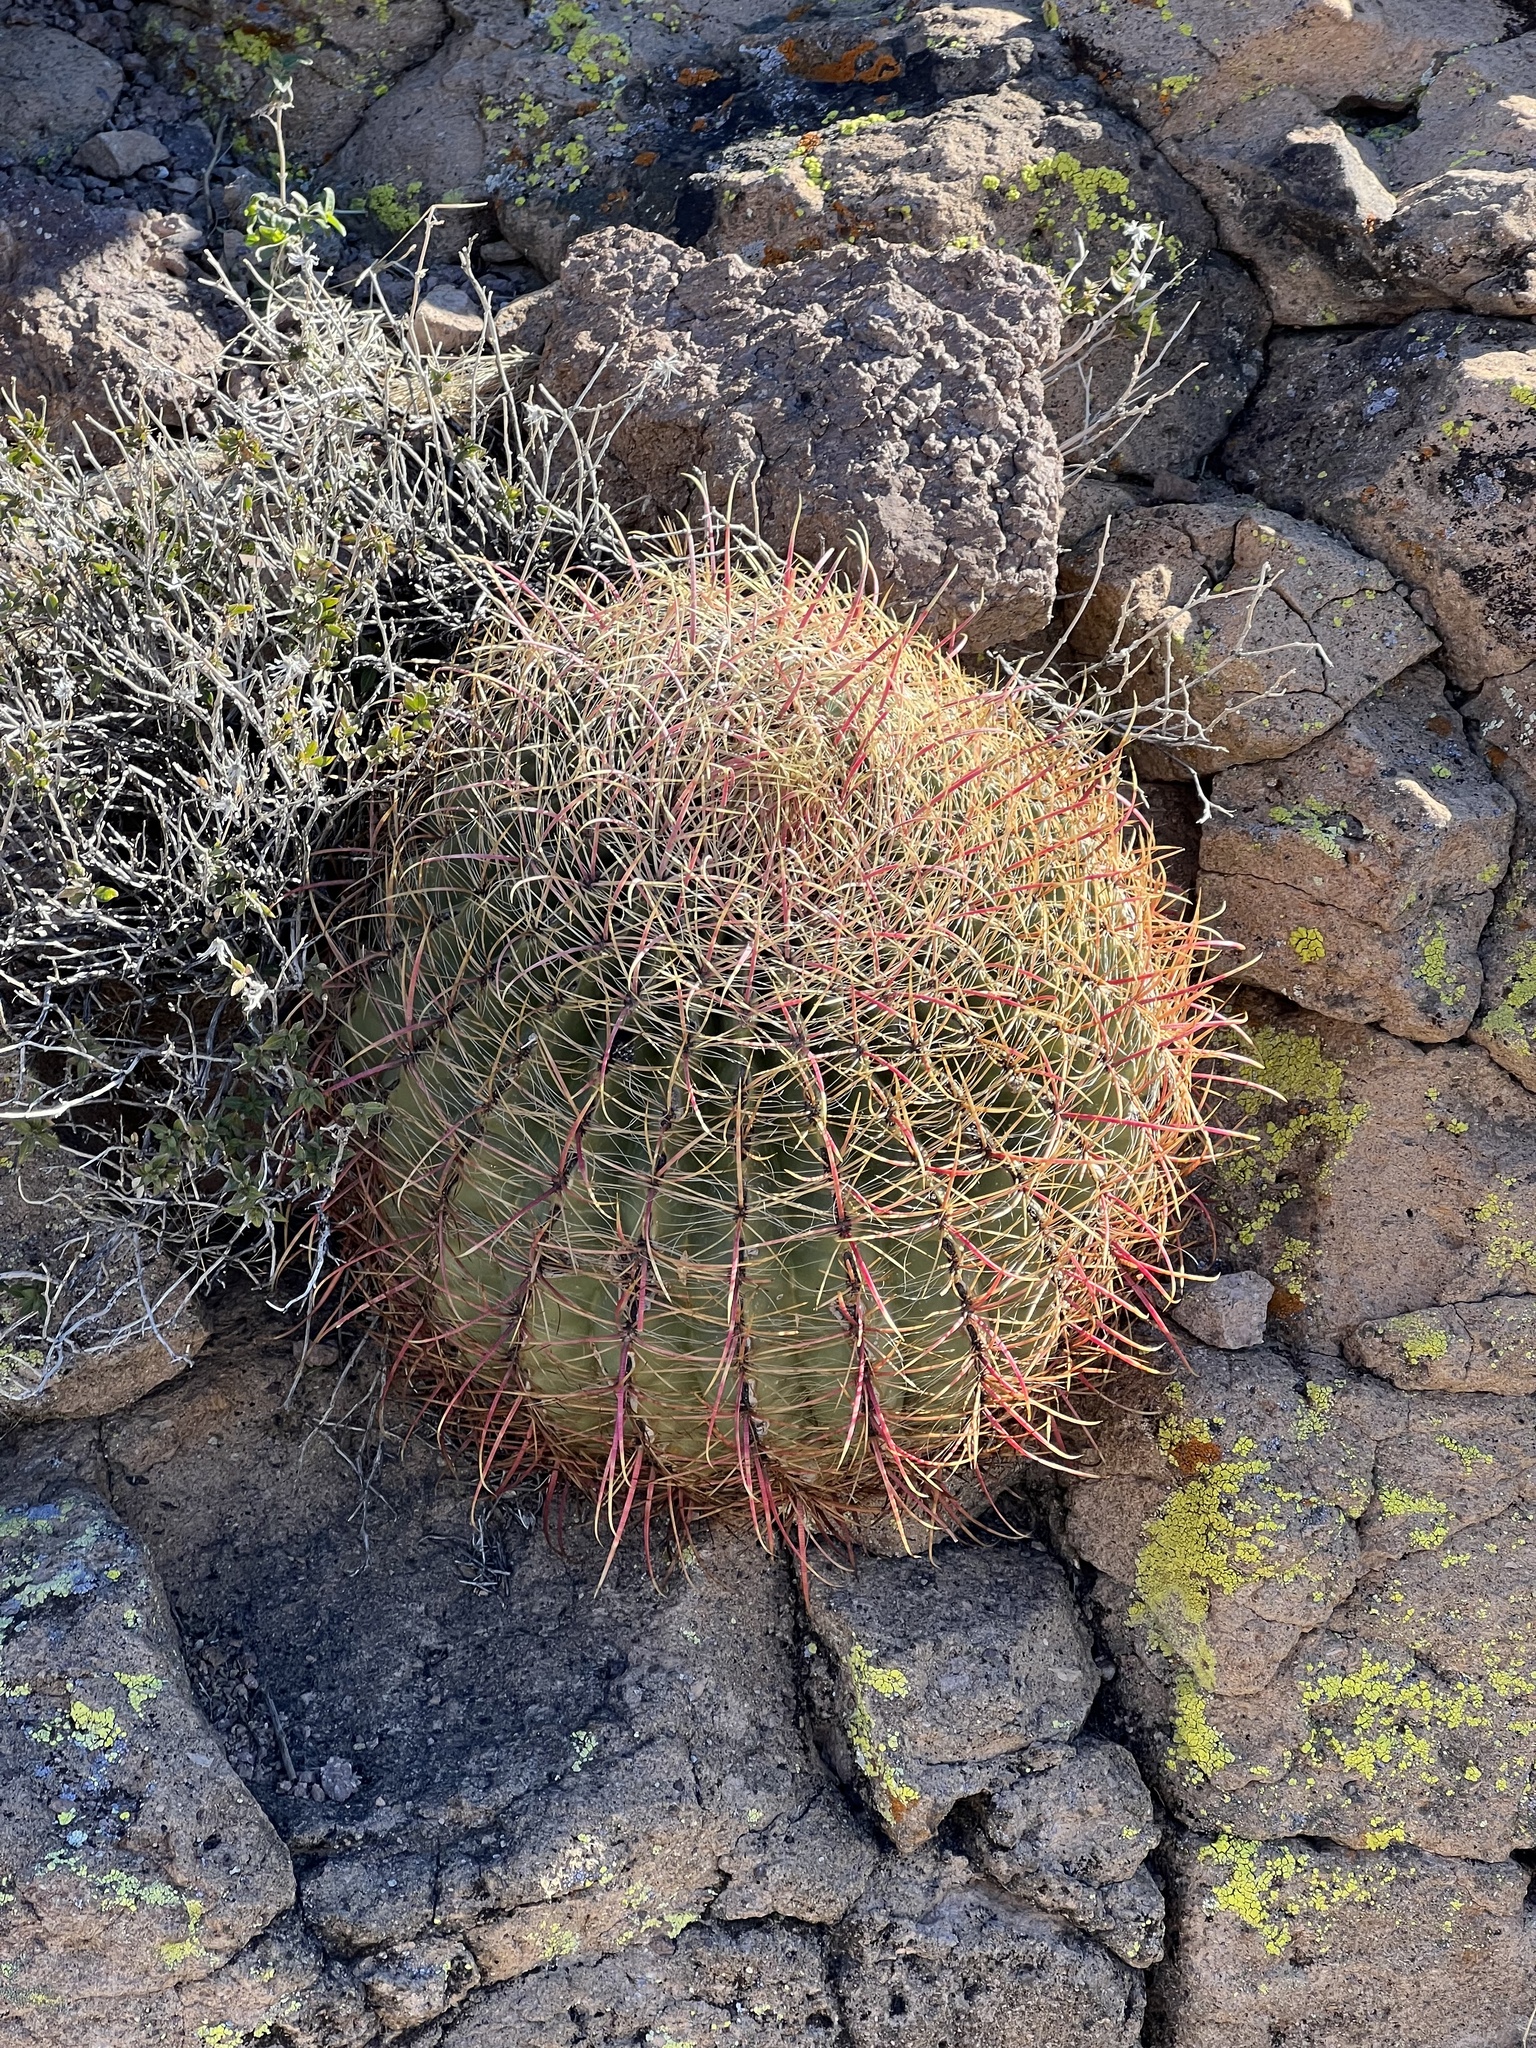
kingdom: Plantae
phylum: Tracheophyta
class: Magnoliopsida
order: Caryophyllales
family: Cactaceae
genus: Ferocactus
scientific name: Ferocactus cylindraceus
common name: California barrel cactus
